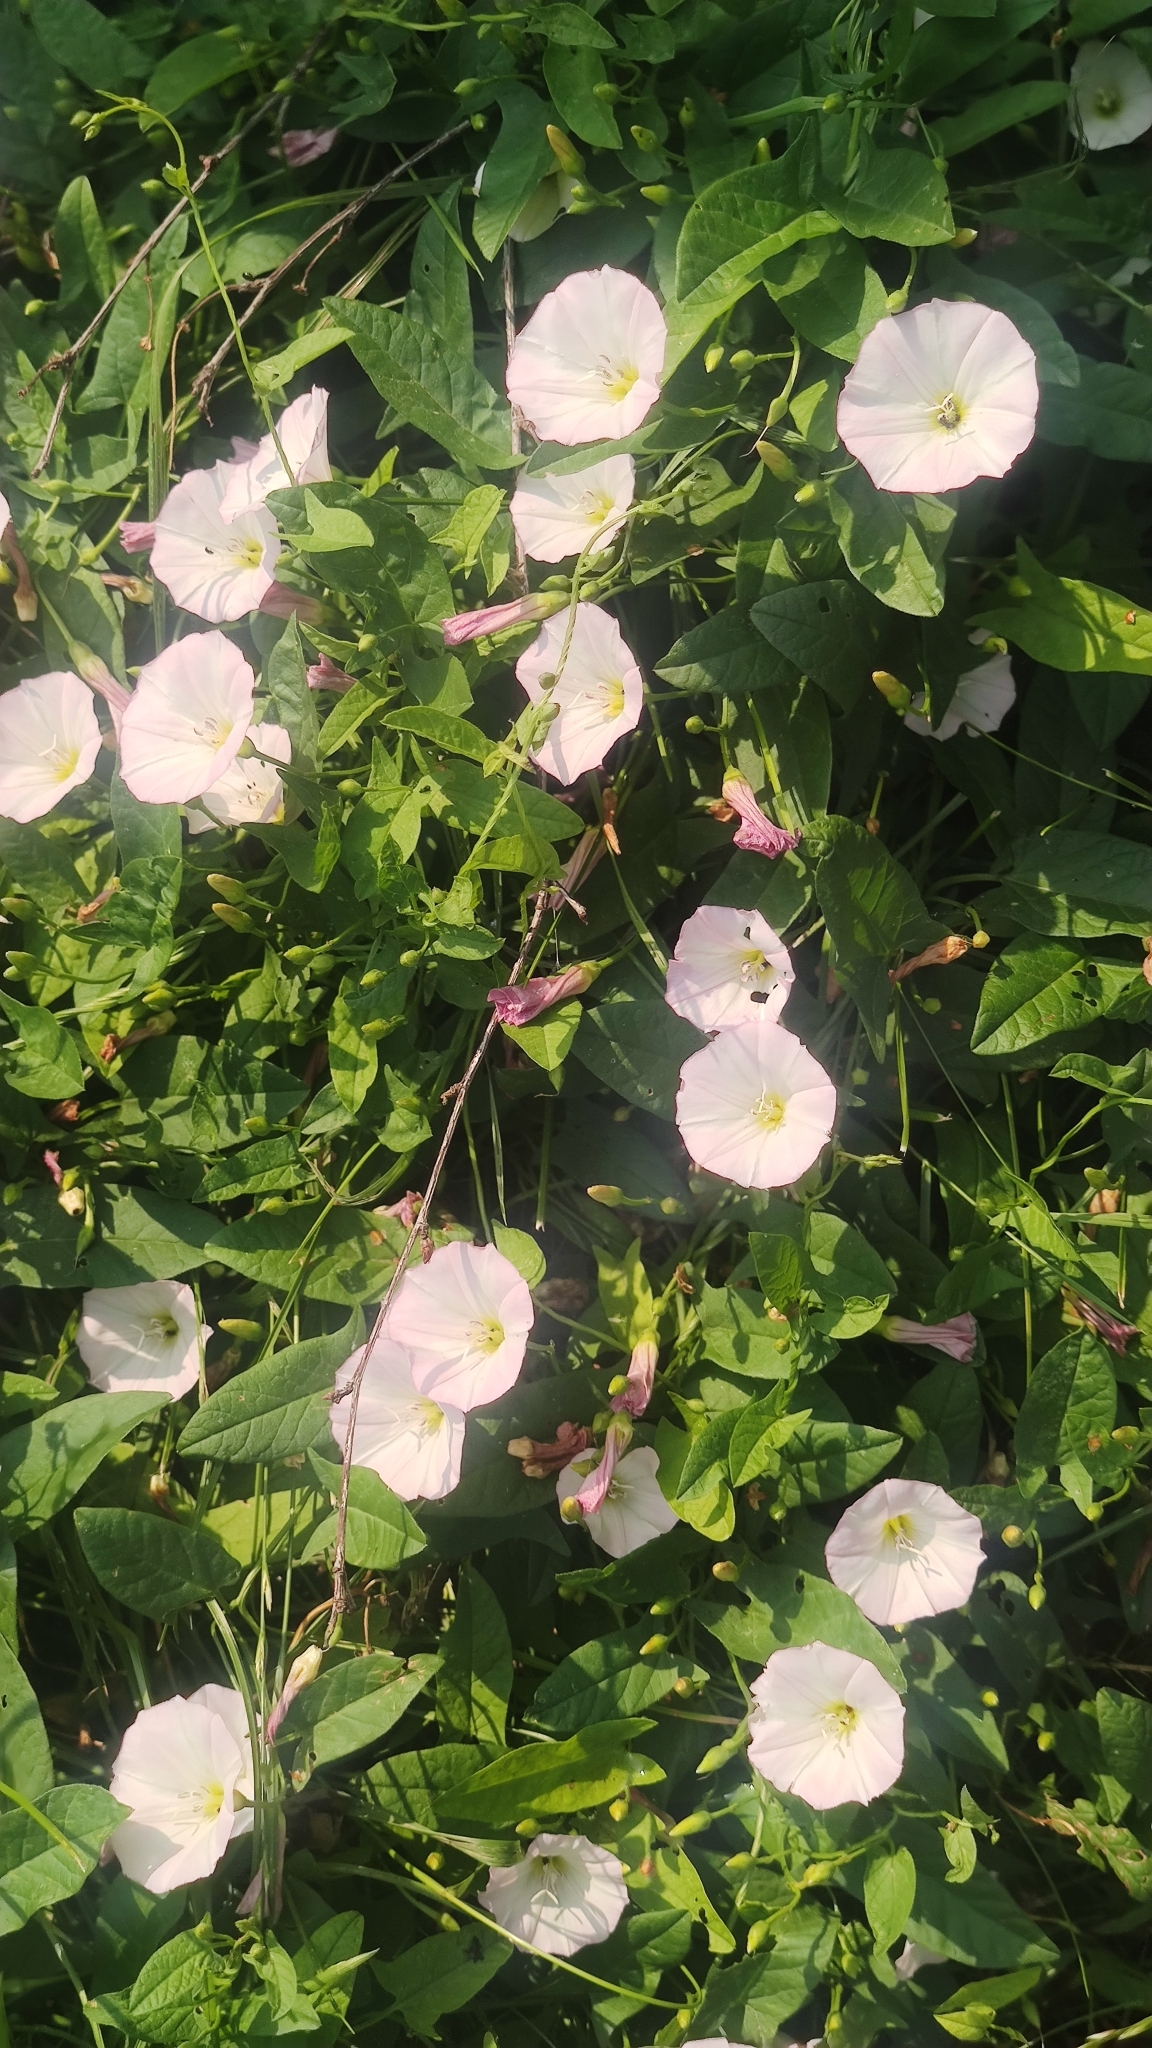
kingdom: Plantae
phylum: Tracheophyta
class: Magnoliopsida
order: Solanales
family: Convolvulaceae
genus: Convolvulus
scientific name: Convolvulus arvensis
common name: Field bindweed
